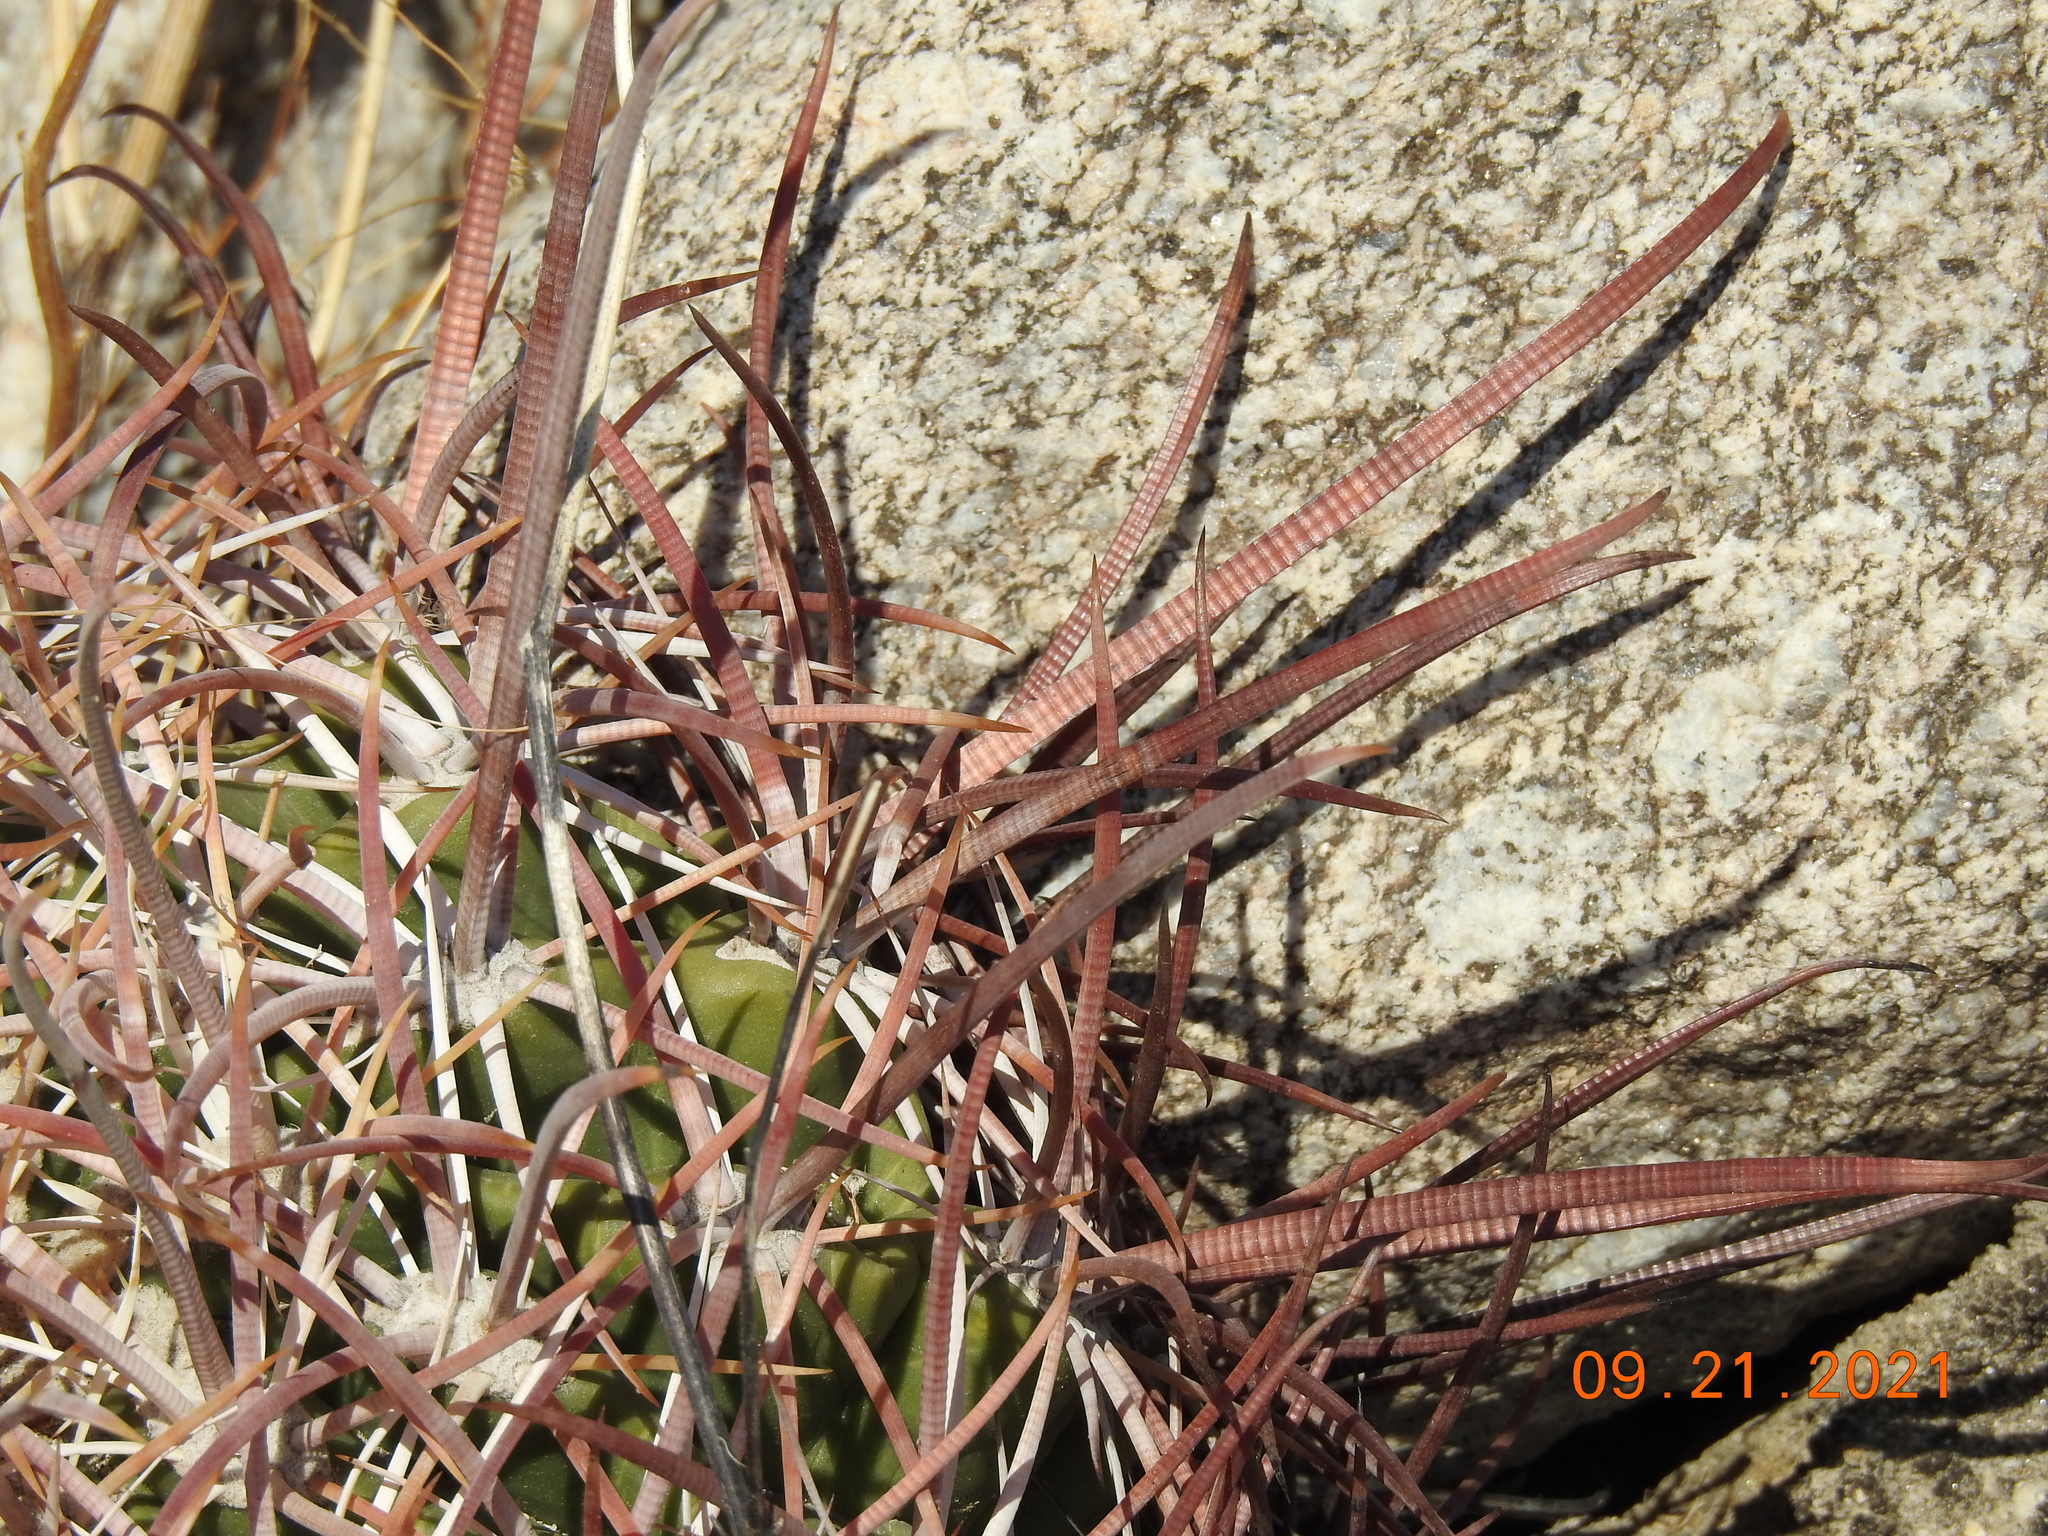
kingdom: Plantae
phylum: Tracheophyta
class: Magnoliopsida
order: Caryophyllales
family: Cactaceae
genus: Ferocactus
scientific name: Ferocactus cylindraceus
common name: California barrel cactus
